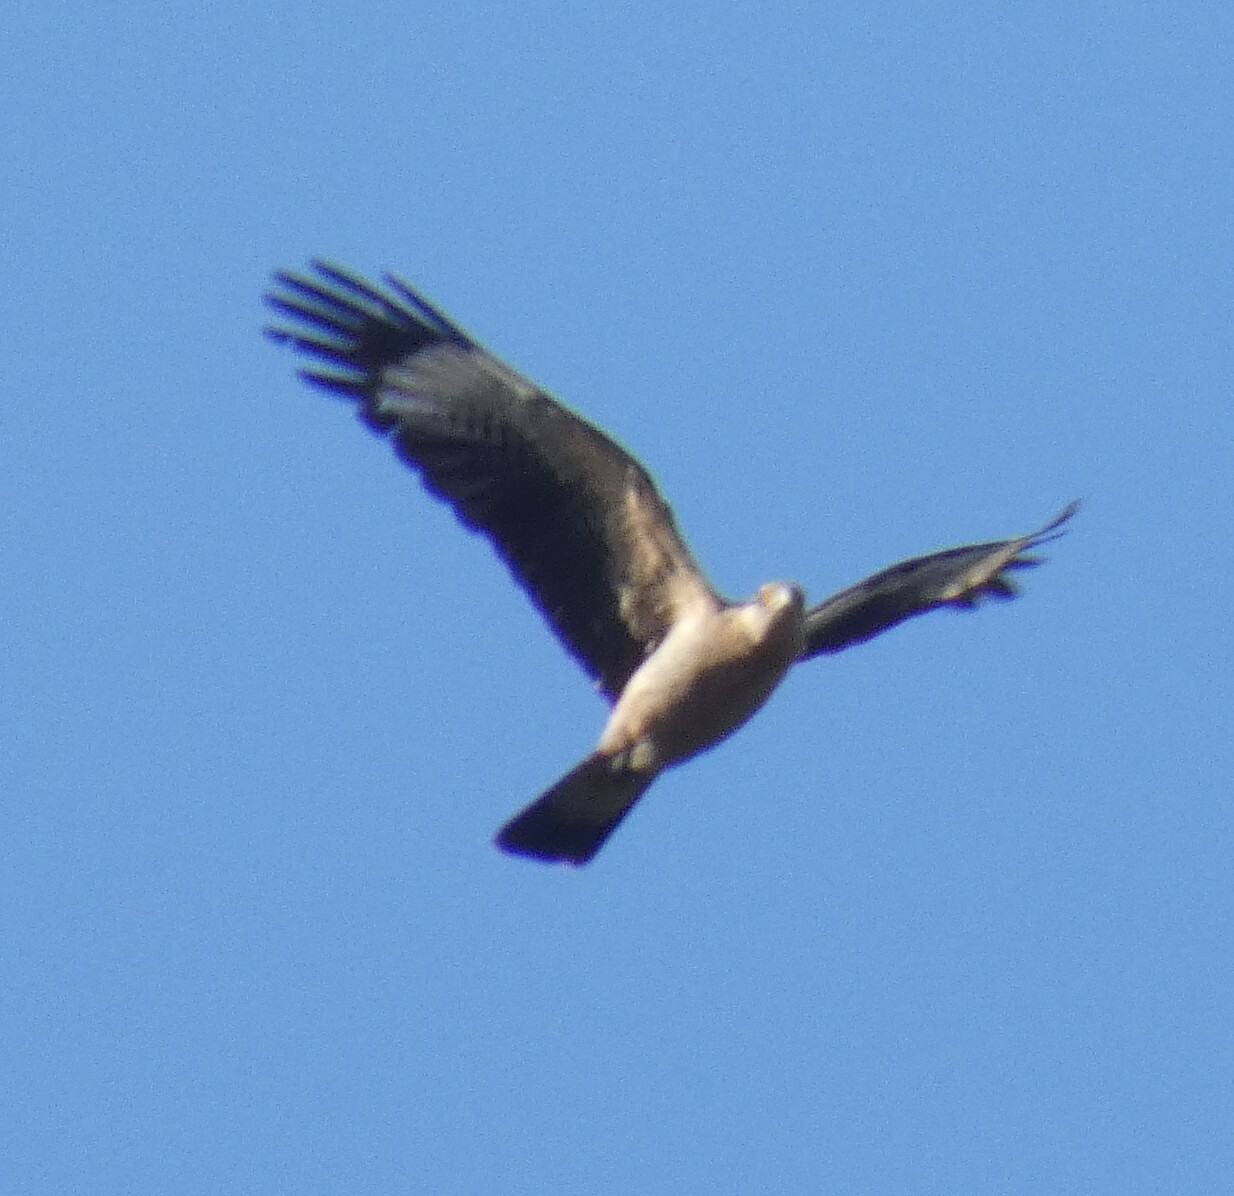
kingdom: Animalia
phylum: Chordata
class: Aves
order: Falconiformes
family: Falconidae
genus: Daptrius
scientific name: Daptrius
